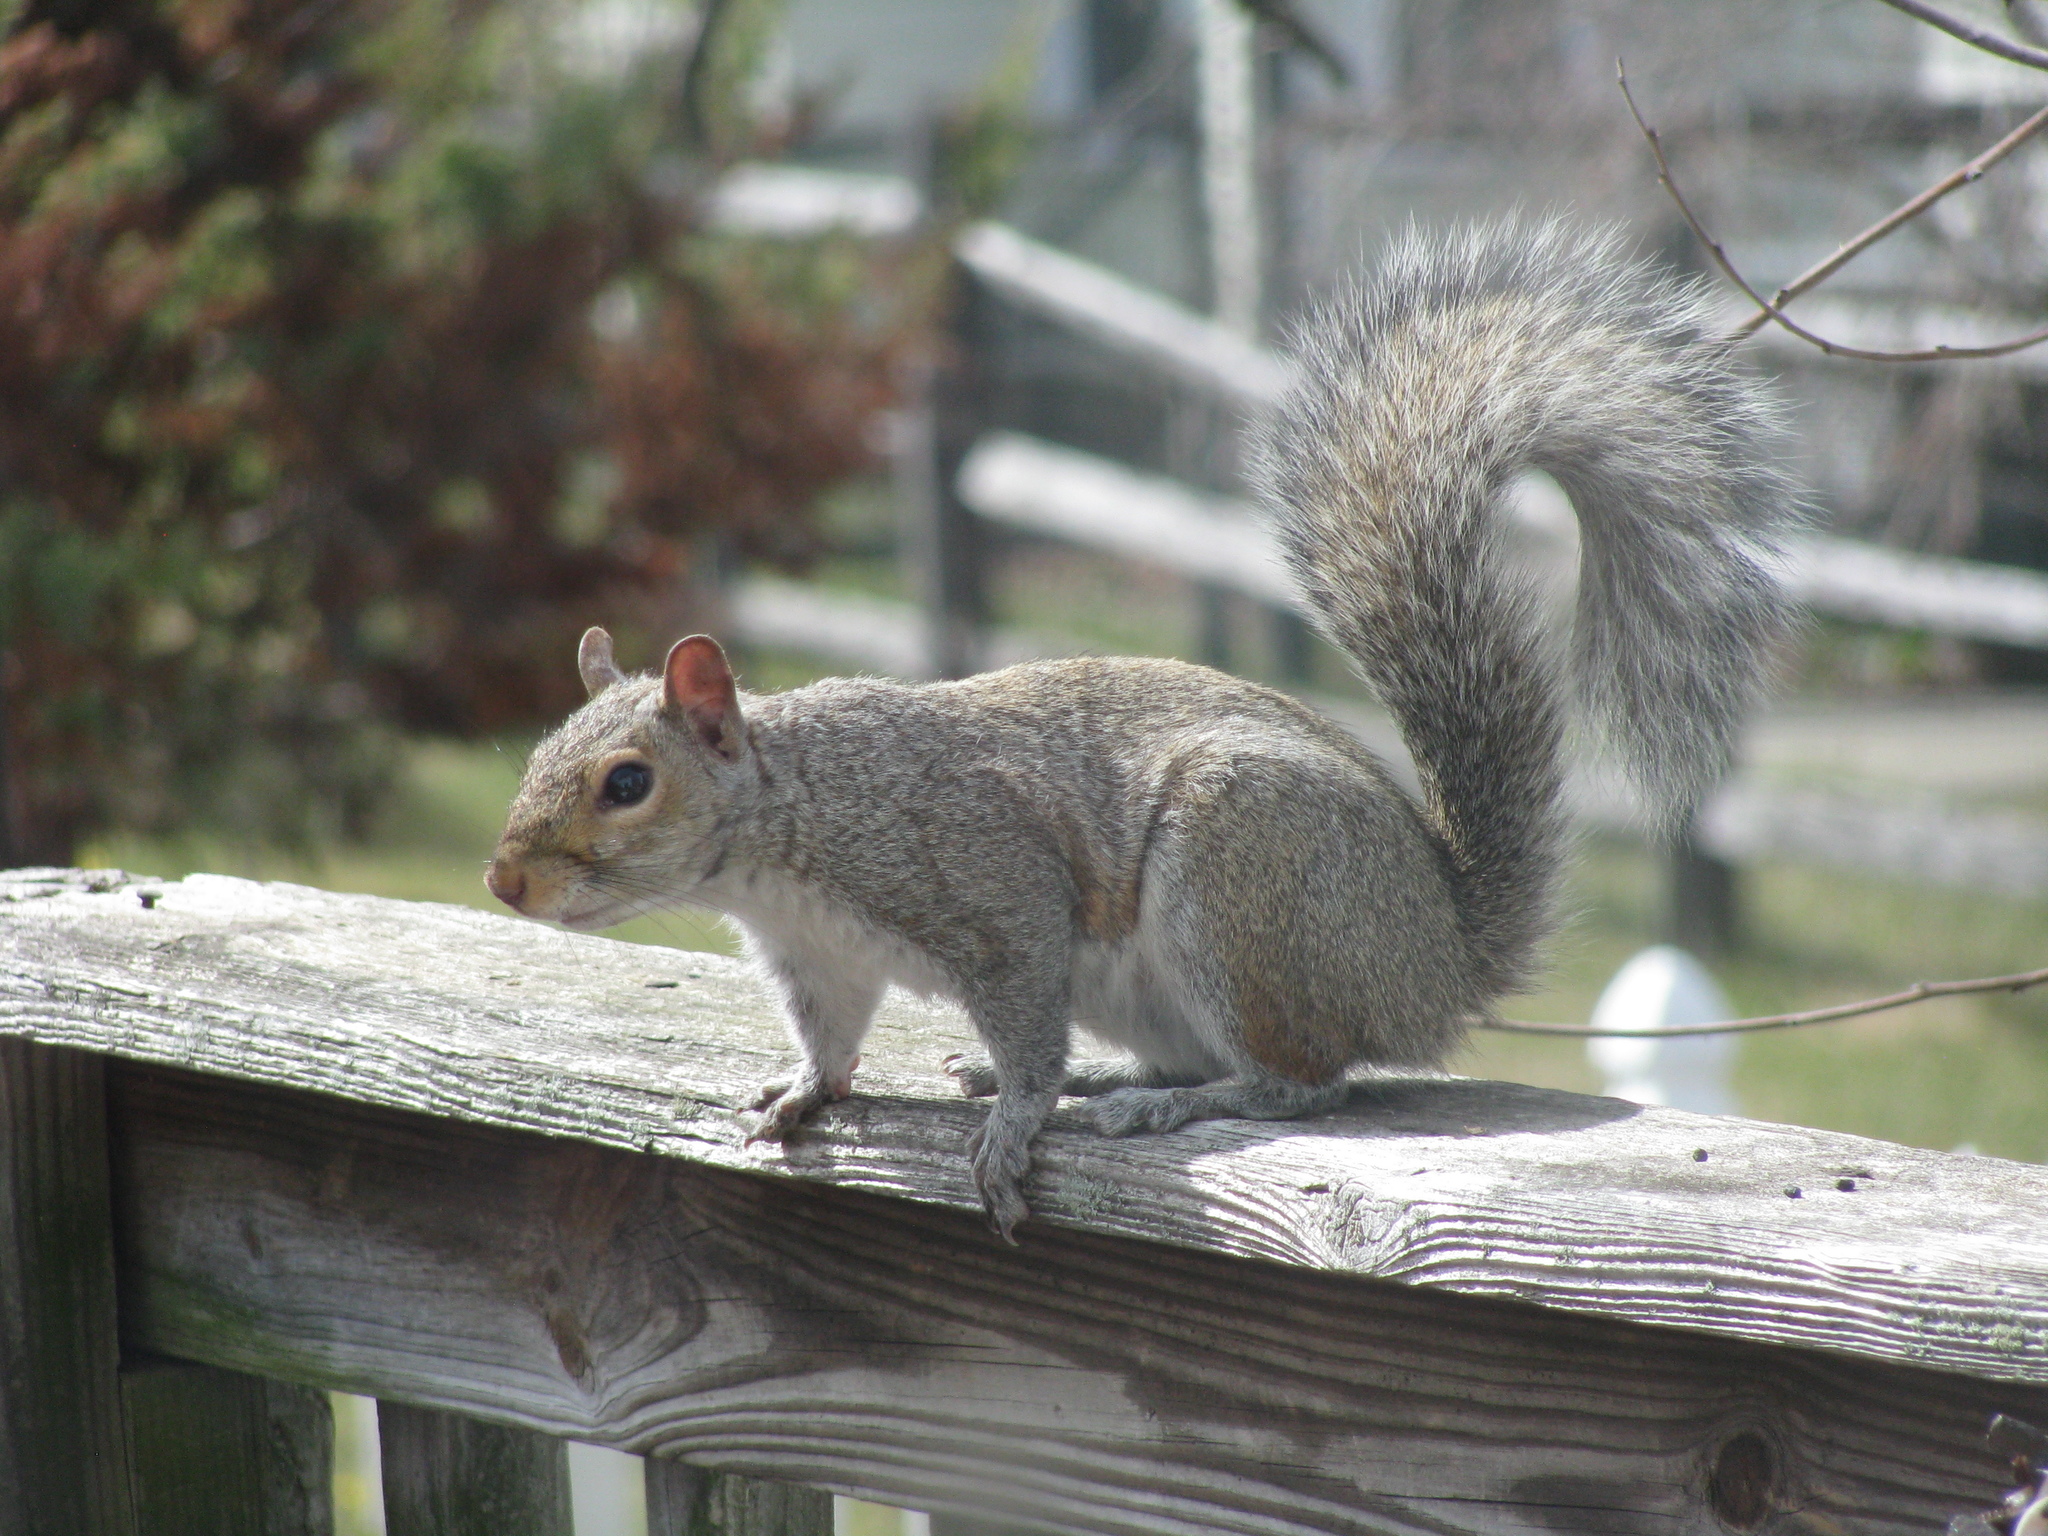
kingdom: Animalia
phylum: Chordata
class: Mammalia
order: Rodentia
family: Sciuridae
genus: Sciurus
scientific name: Sciurus carolinensis
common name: Eastern gray squirrel
